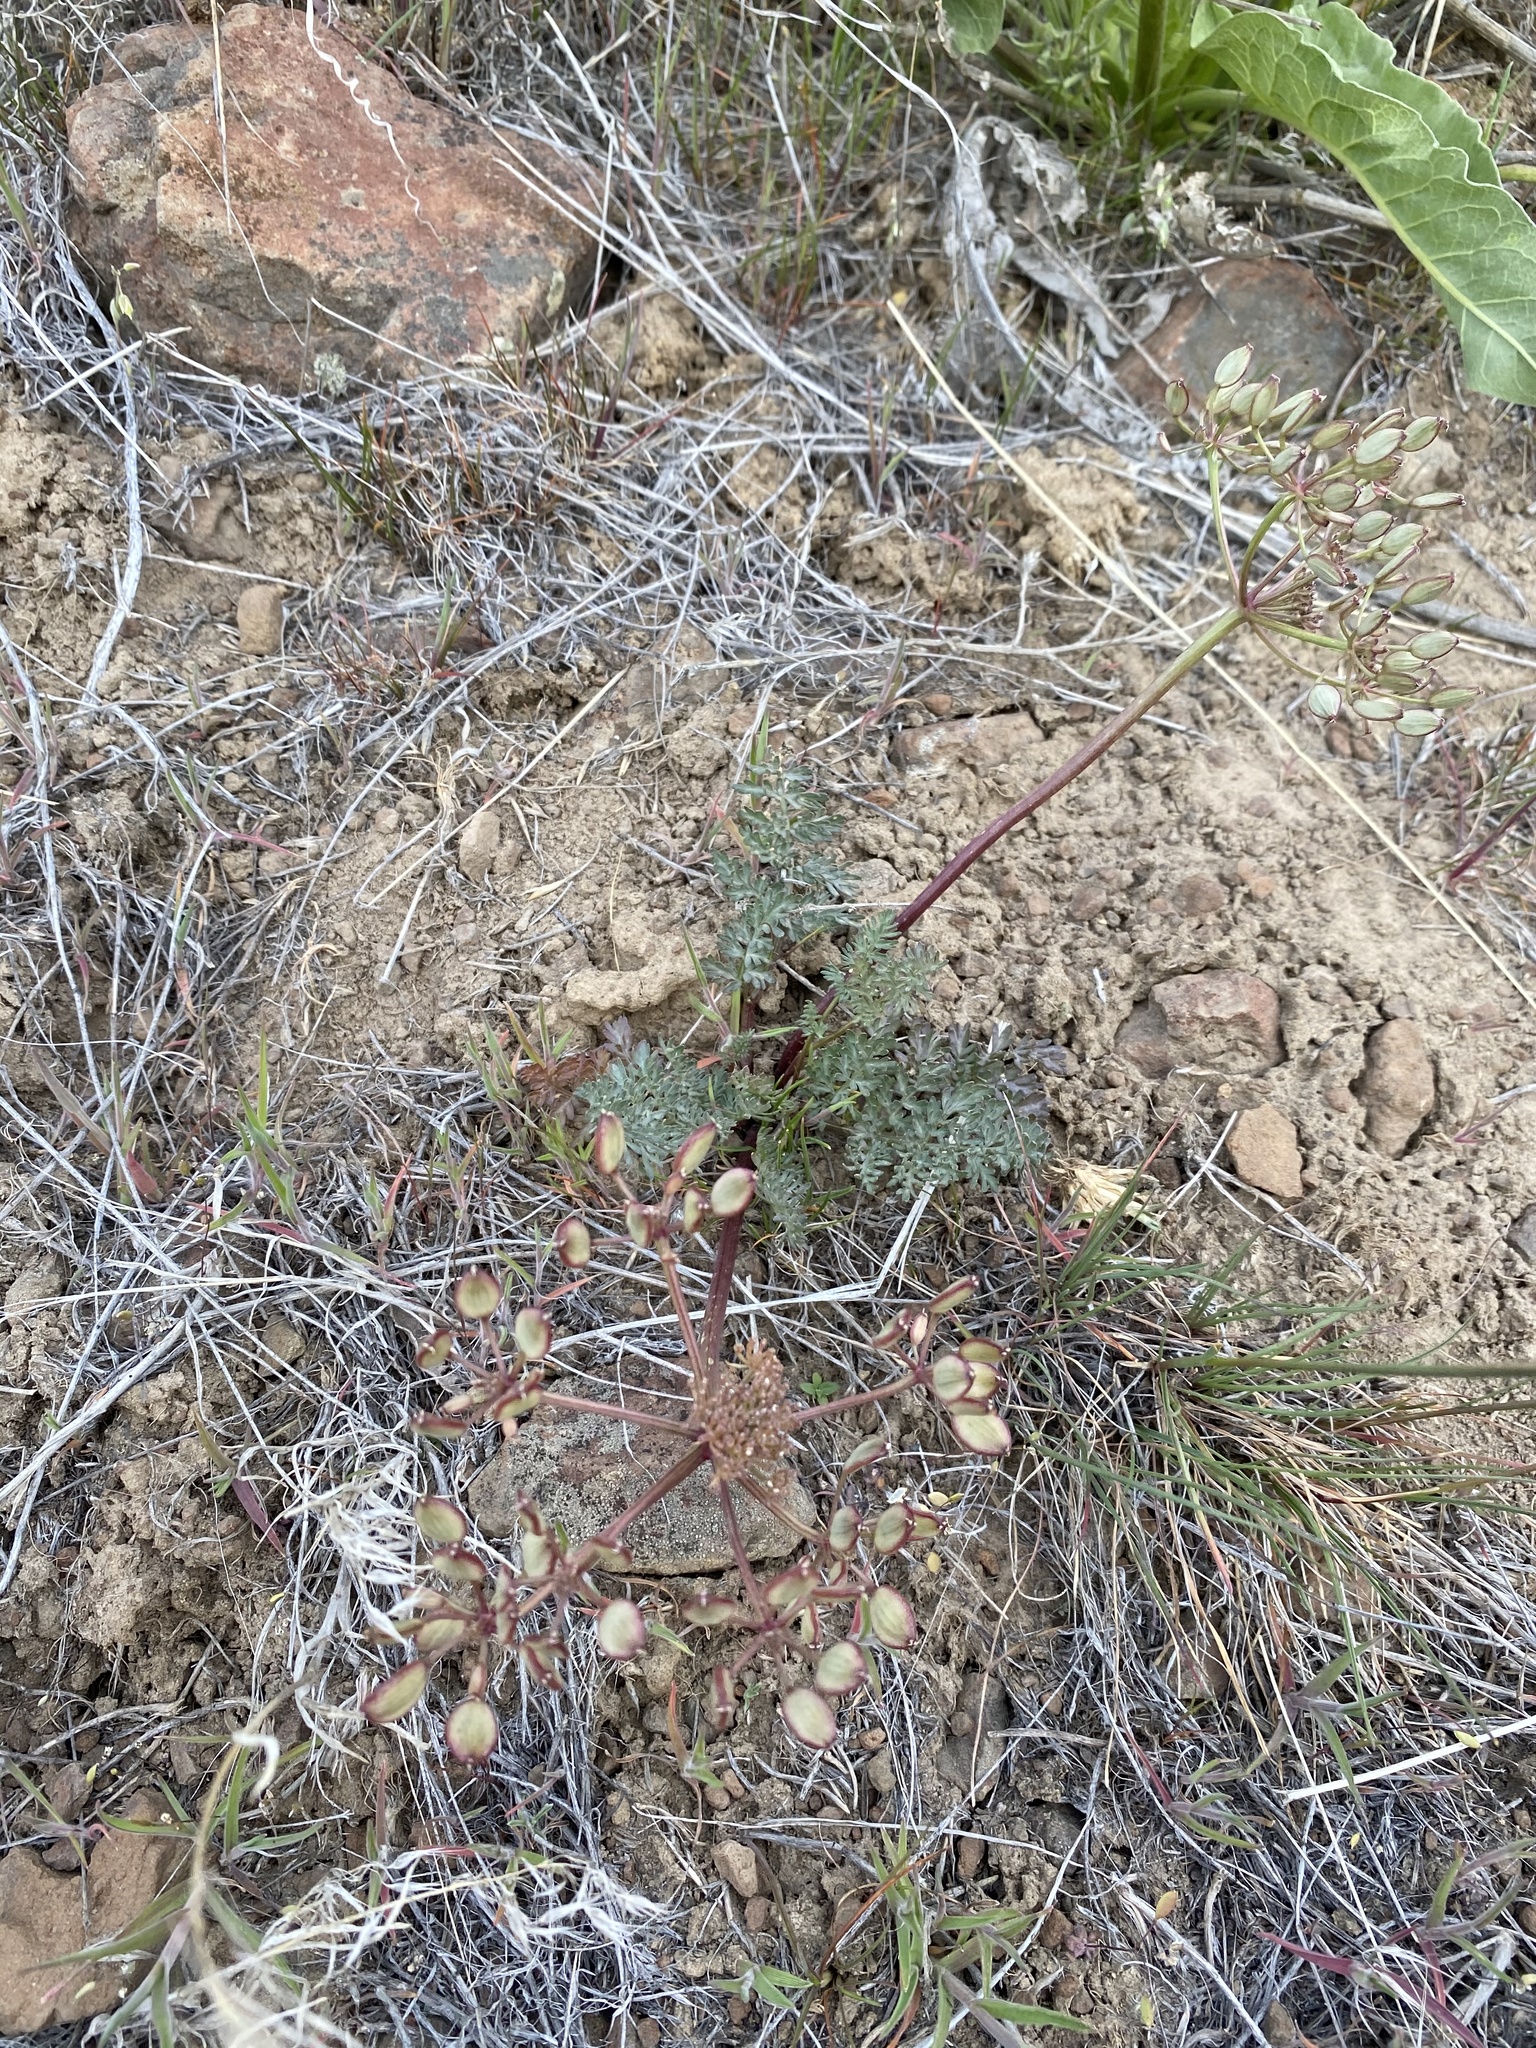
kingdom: Plantae
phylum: Tracheophyta
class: Magnoliopsida
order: Apiales
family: Apiaceae
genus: Lomatium
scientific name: Lomatium canbyi
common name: Chucklusa
